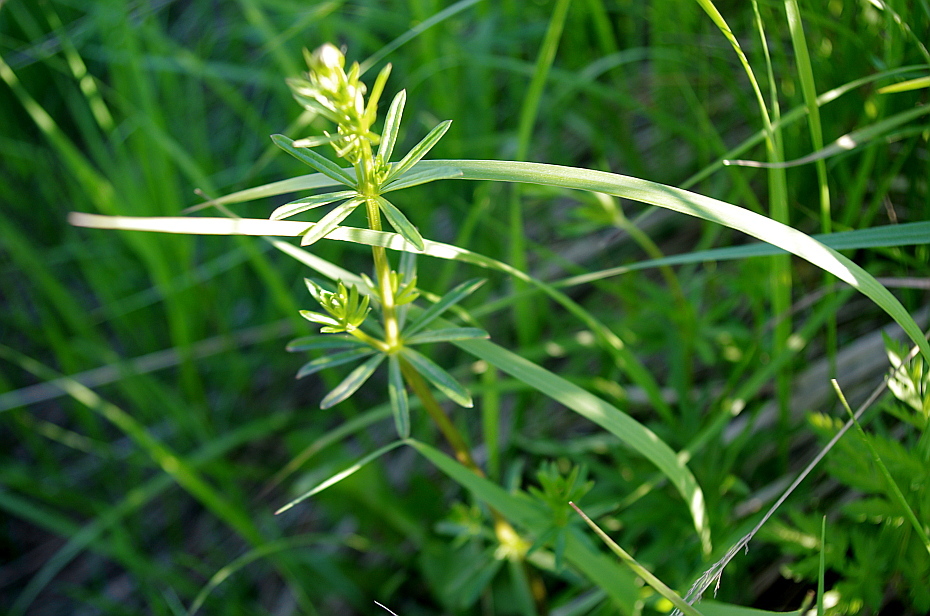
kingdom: Plantae
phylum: Tracheophyta
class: Magnoliopsida
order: Gentianales
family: Rubiaceae
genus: Galium
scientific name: Galium mollugo
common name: Hedge bedstraw
